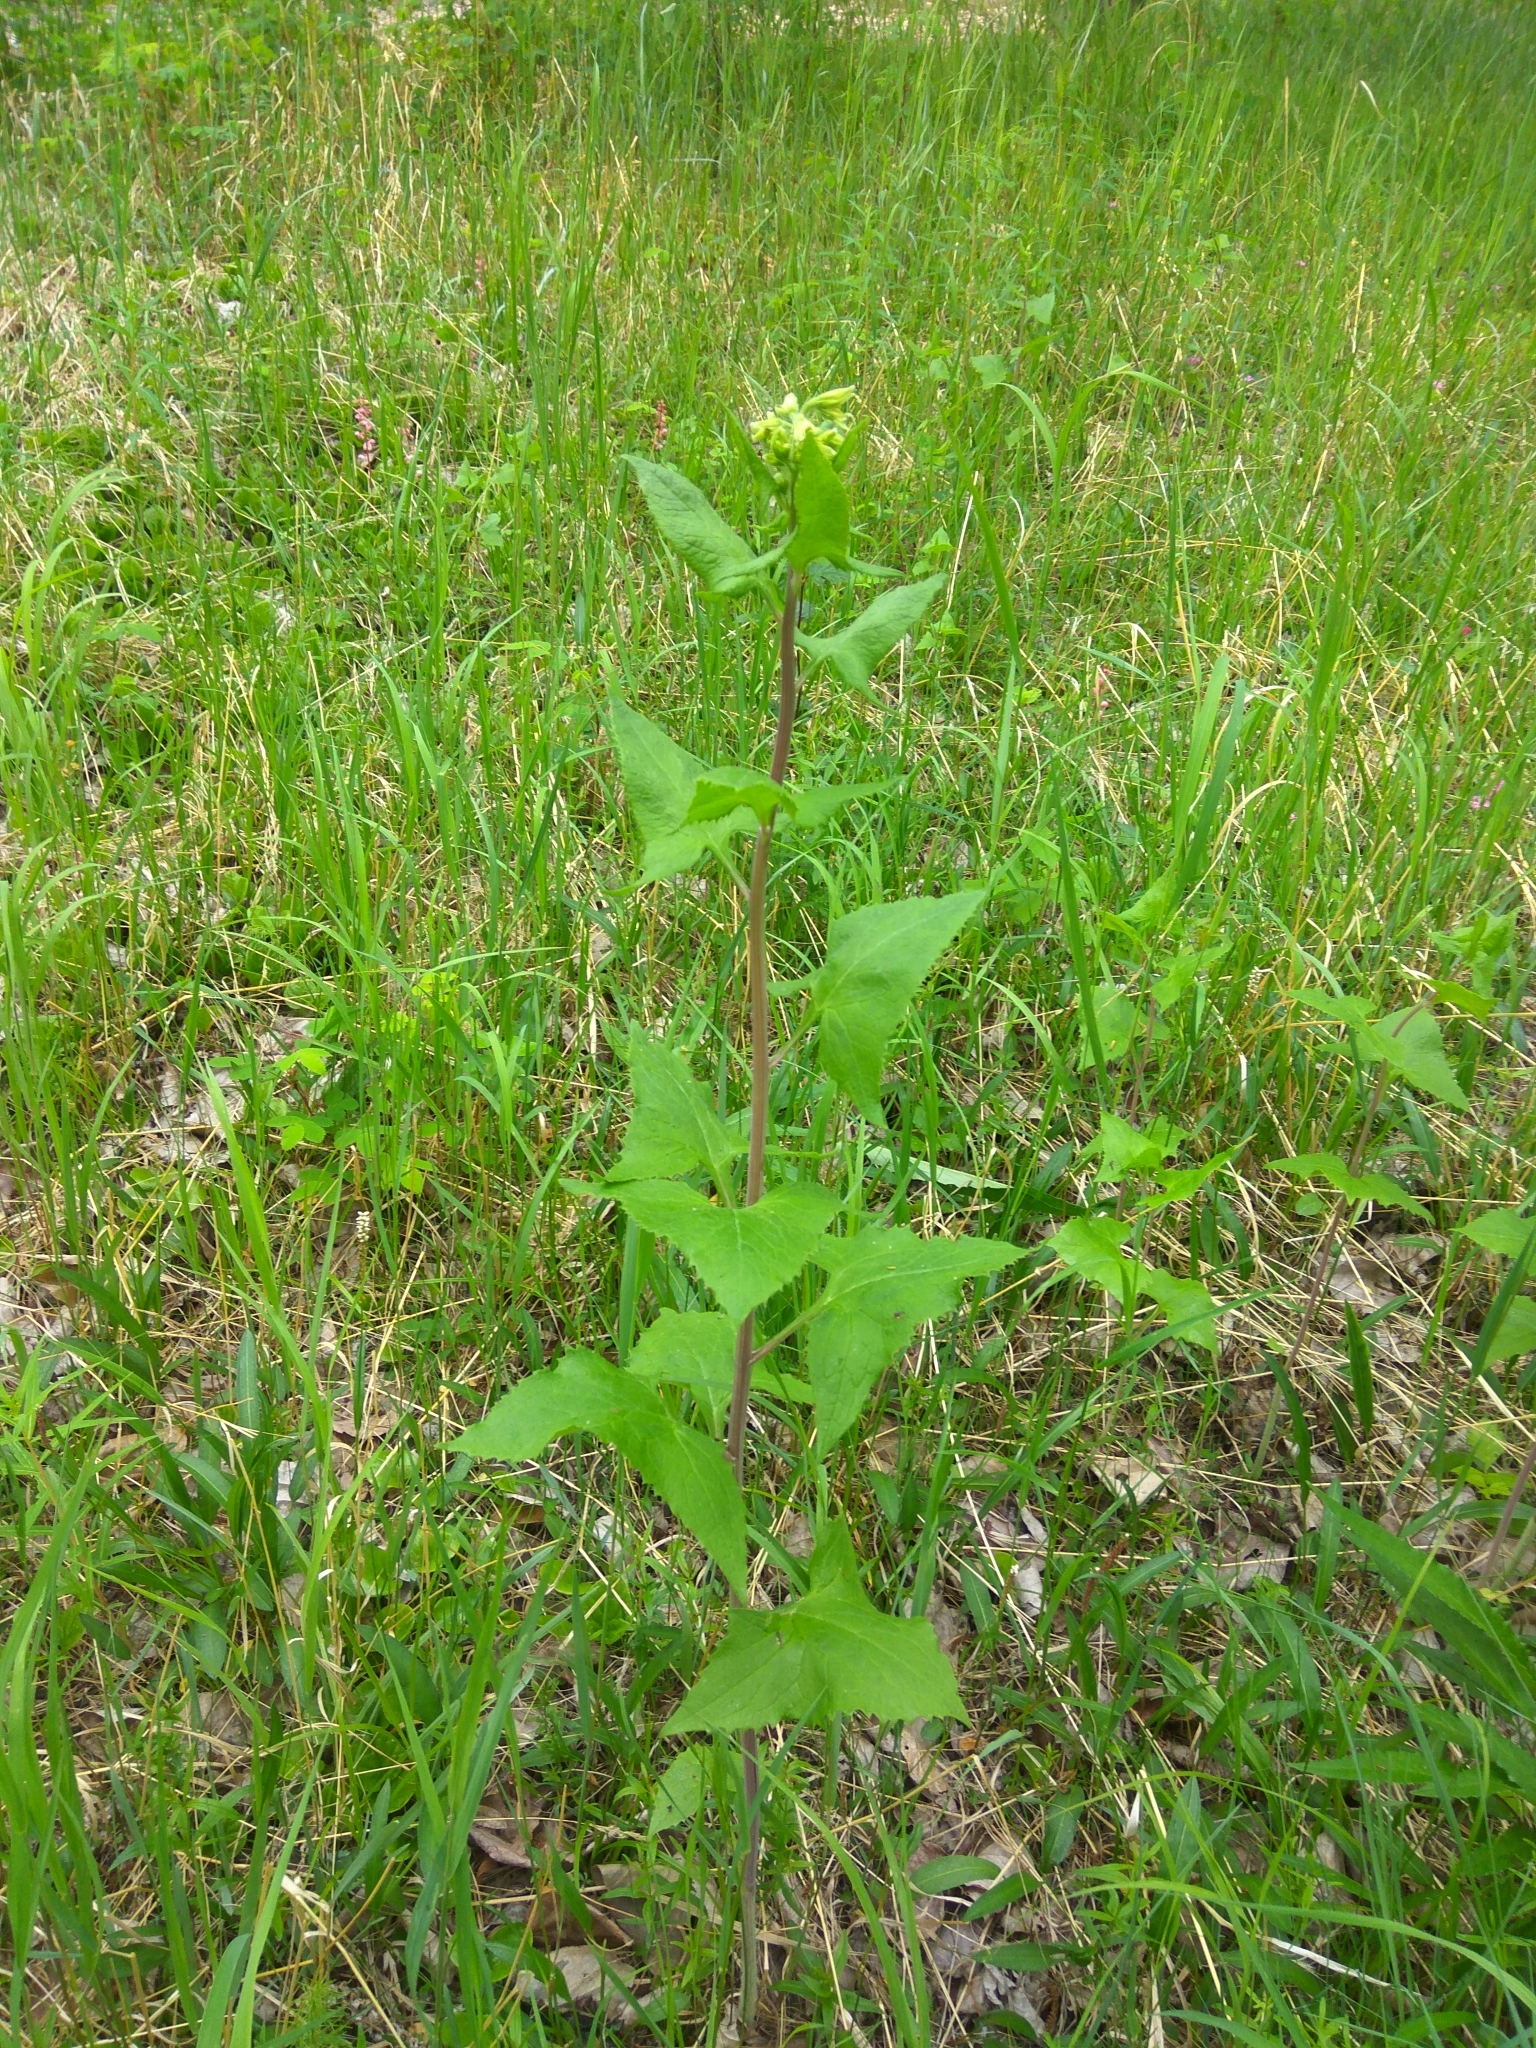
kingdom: Plantae
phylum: Tracheophyta
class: Magnoliopsida
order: Asterales
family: Asteraceae
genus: Parasenecio
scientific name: Parasenecio hastatus
